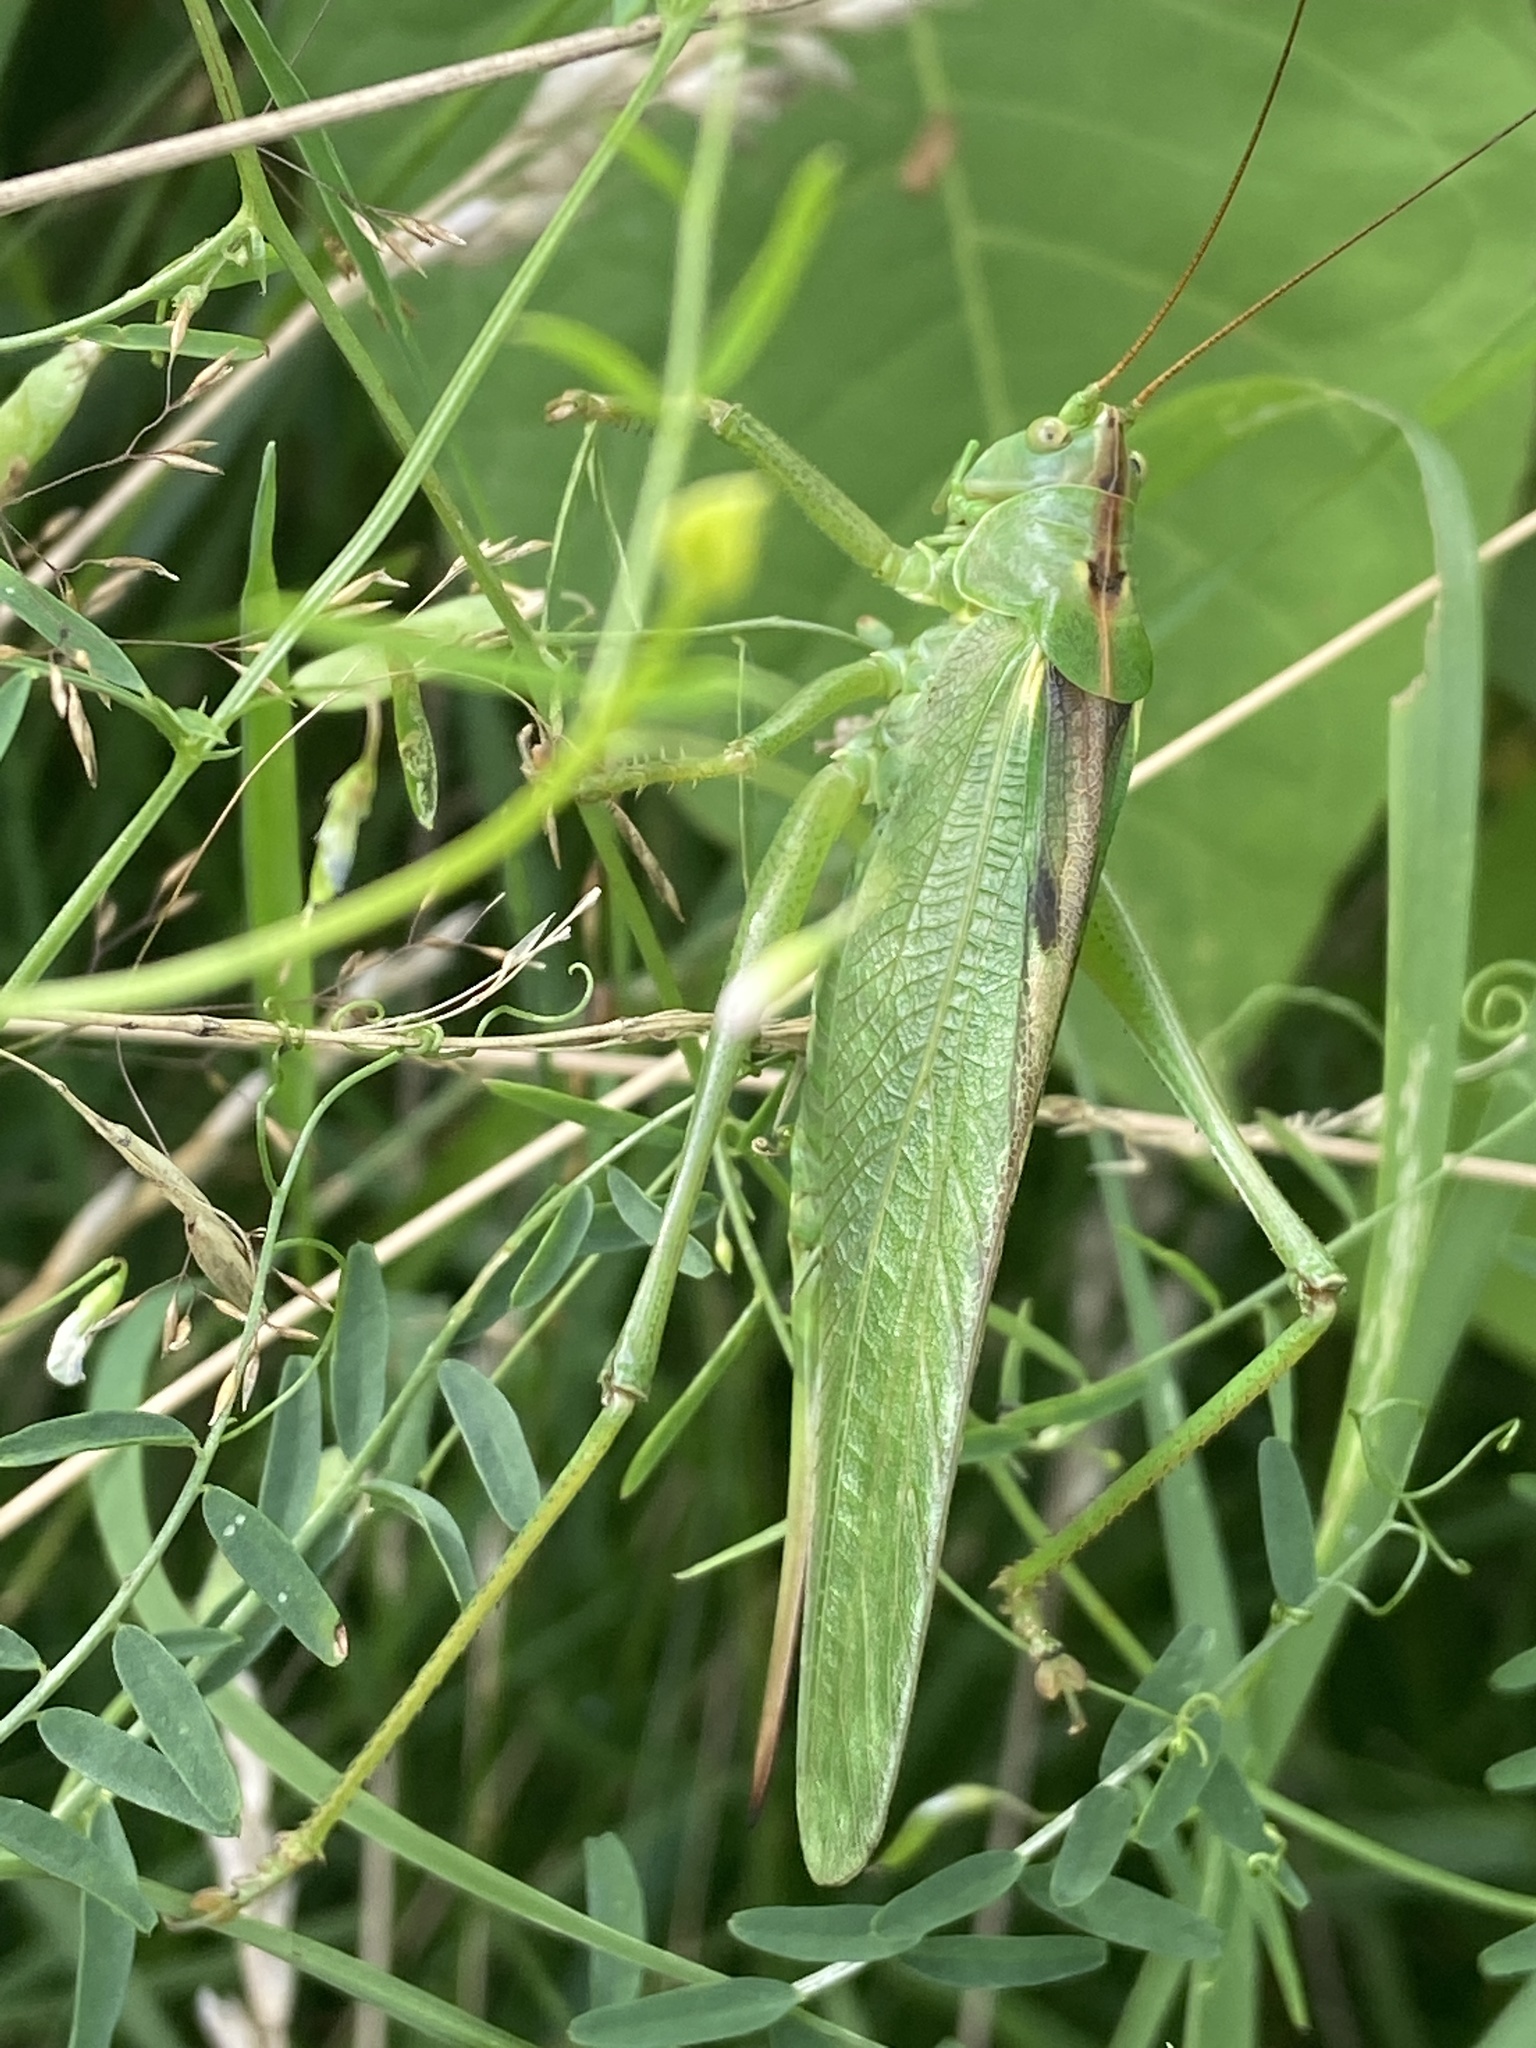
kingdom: Animalia
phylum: Arthropoda
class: Insecta
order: Orthoptera
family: Tettigoniidae
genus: Tettigonia
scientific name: Tettigonia viridissima
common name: Great green bush-cricket
